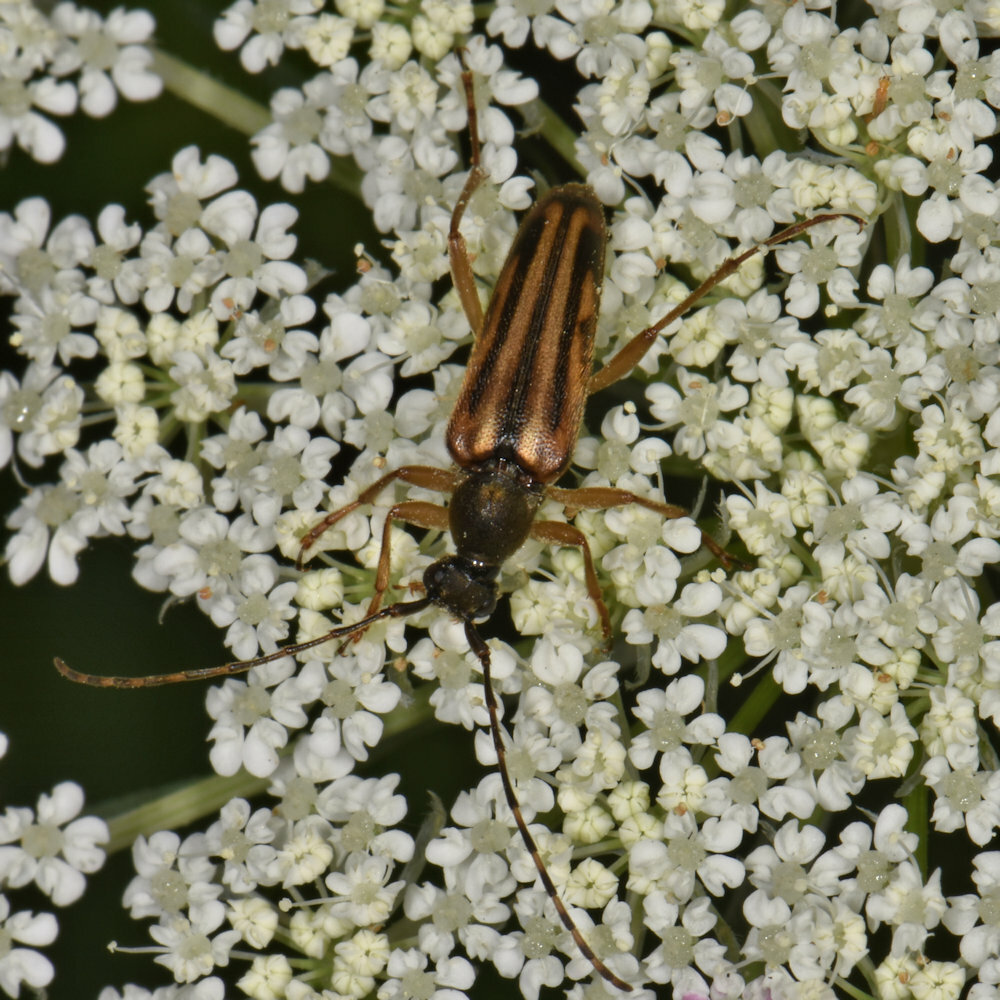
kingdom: Animalia
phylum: Arthropoda
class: Insecta
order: Coleoptera
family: Cerambycidae
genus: Analeptura
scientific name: Analeptura lineola
